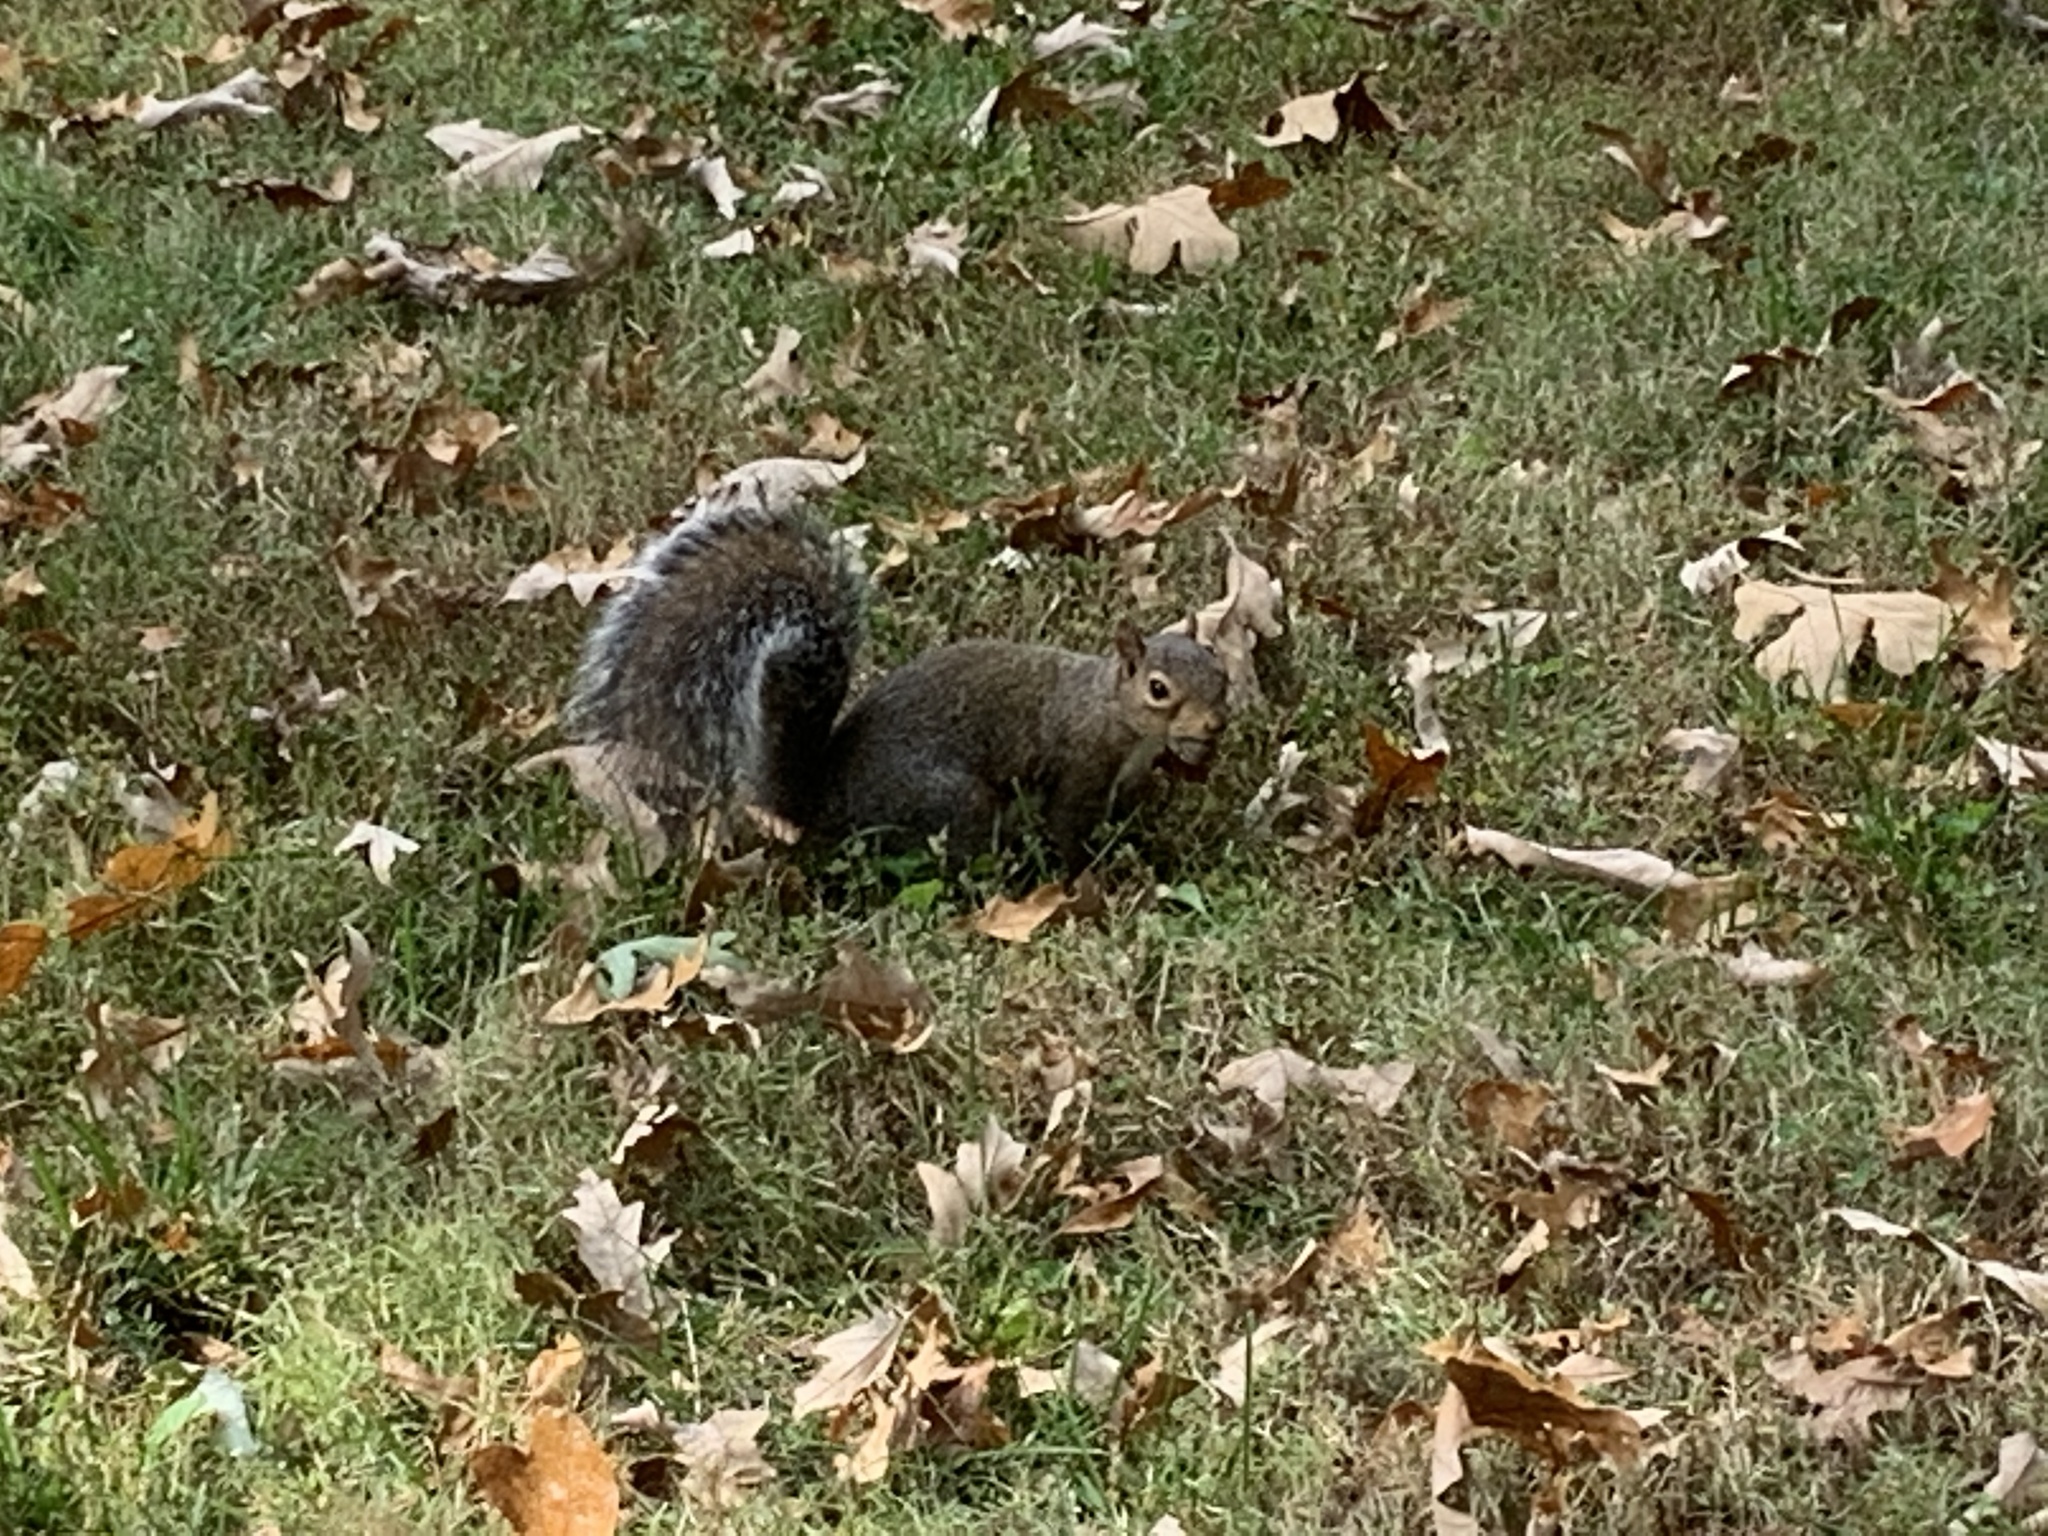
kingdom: Animalia
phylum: Chordata
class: Mammalia
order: Rodentia
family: Sciuridae
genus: Sciurus
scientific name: Sciurus carolinensis
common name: Eastern gray squirrel
